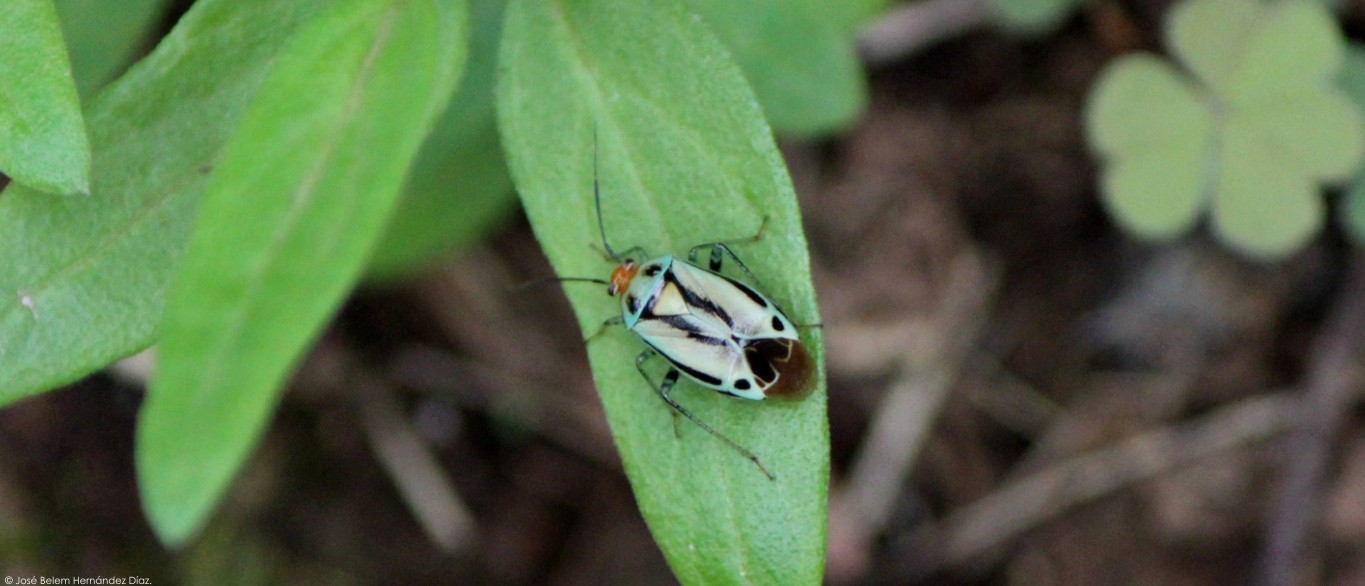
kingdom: Animalia
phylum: Arthropoda
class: Insecta
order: Hemiptera
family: Miridae
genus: Poecilocapsus
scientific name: Poecilocapsus nigriger
